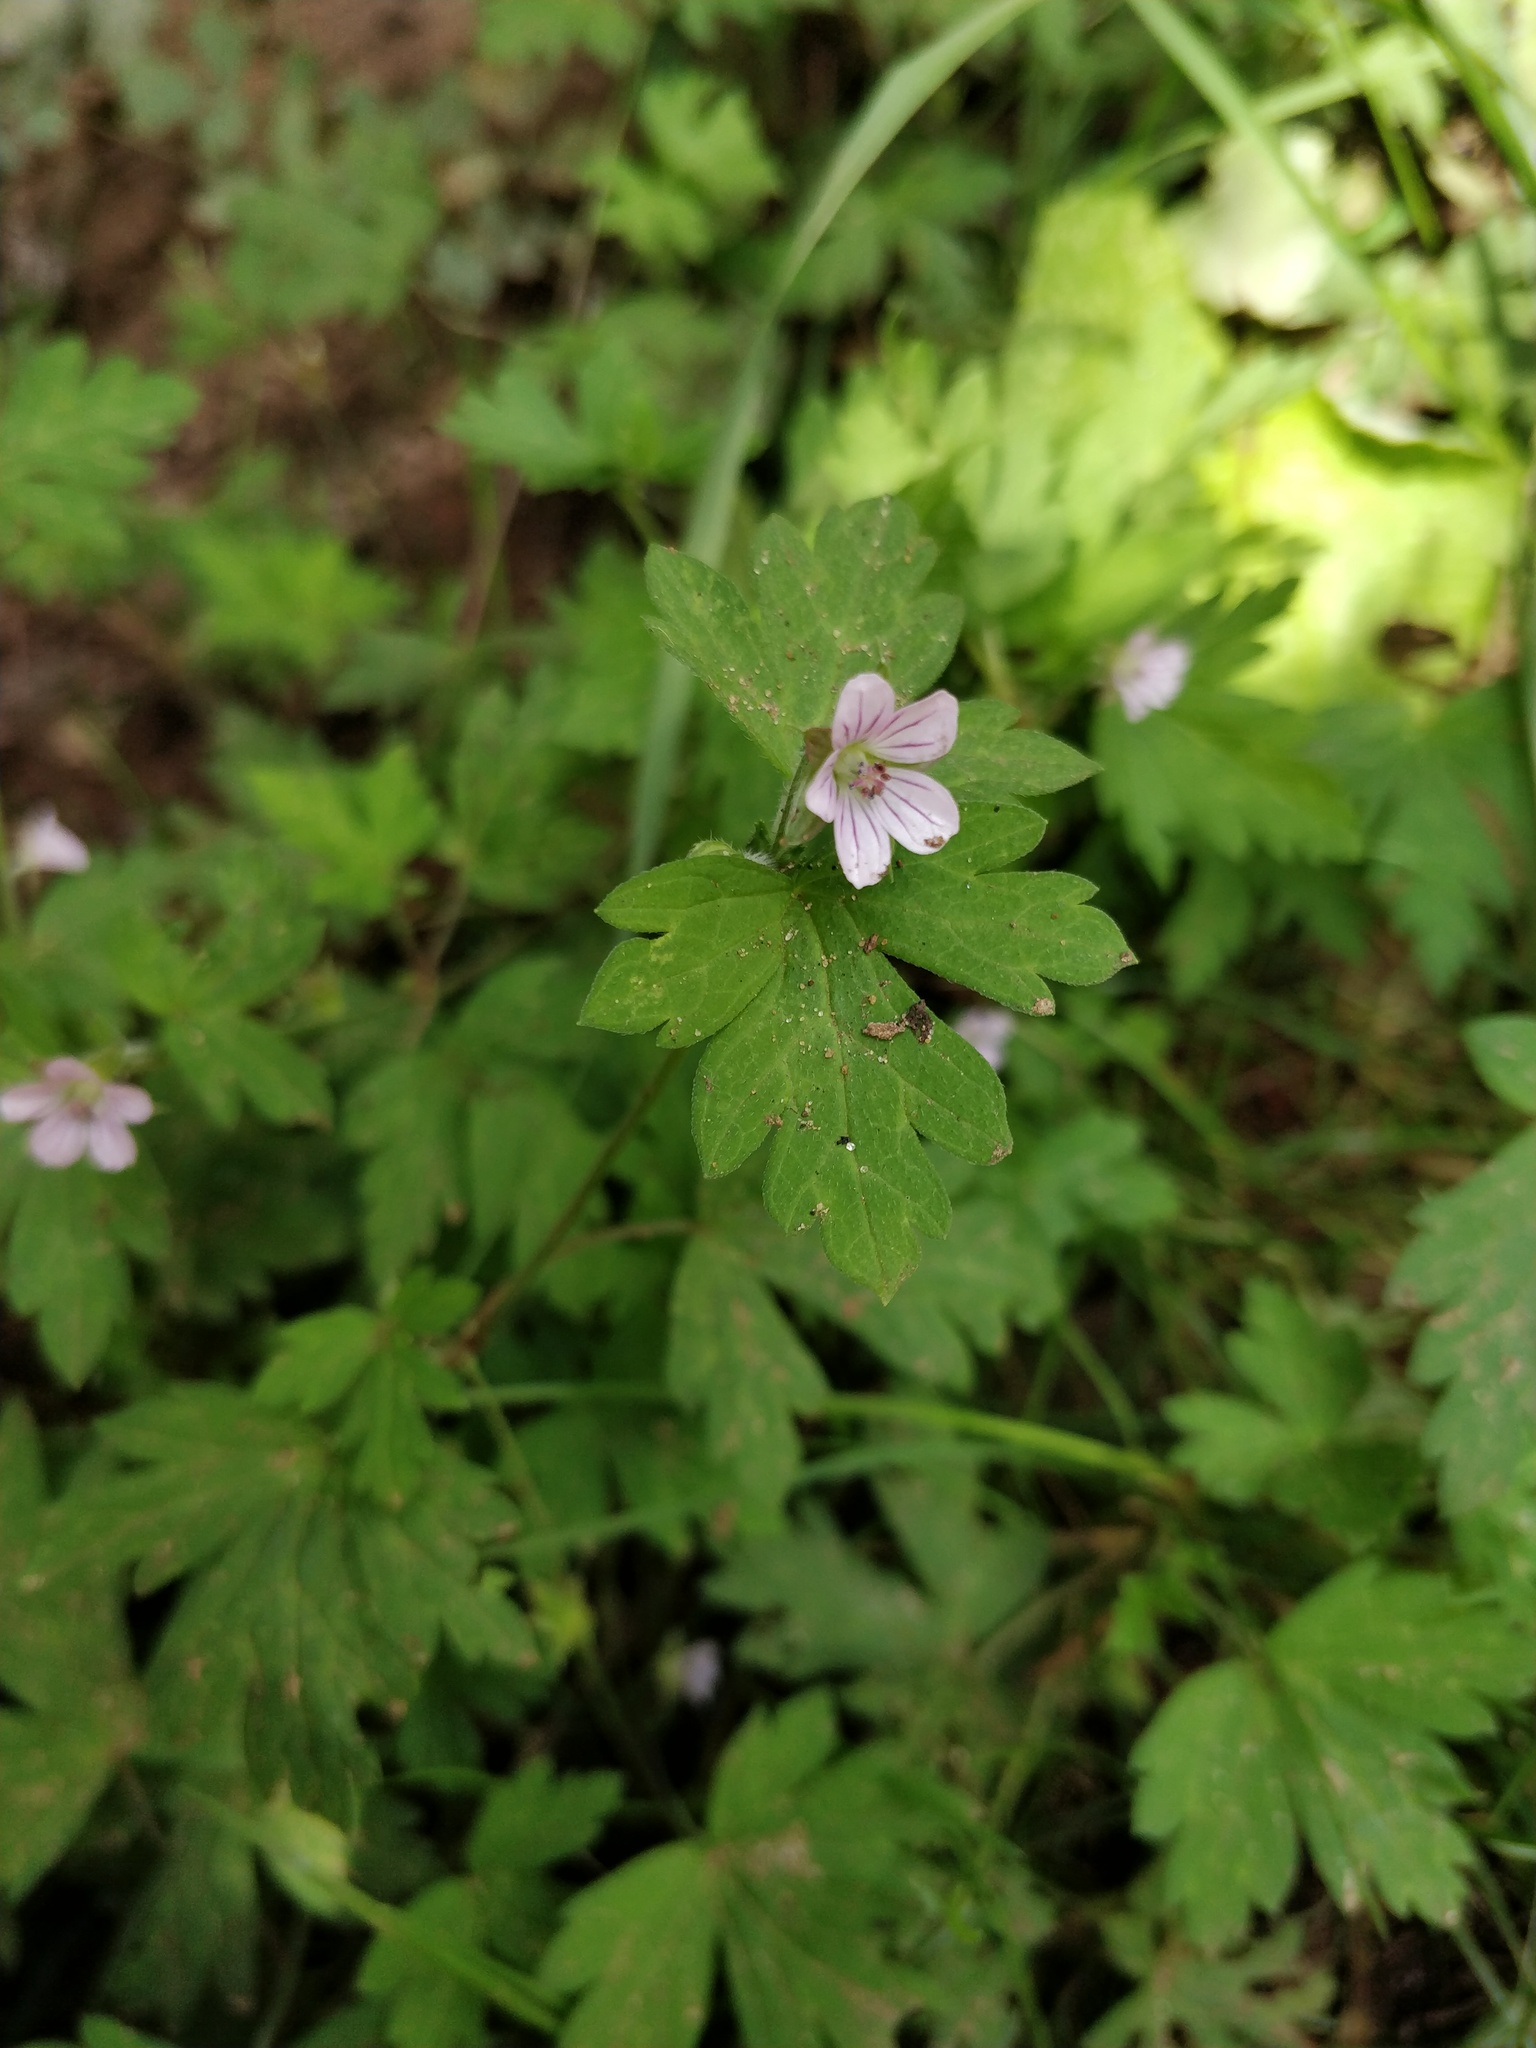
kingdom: Plantae
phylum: Tracheophyta
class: Magnoliopsida
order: Geraniales
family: Geraniaceae
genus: Geranium
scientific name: Geranium sibiricum
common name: Siberian crane's-bill
